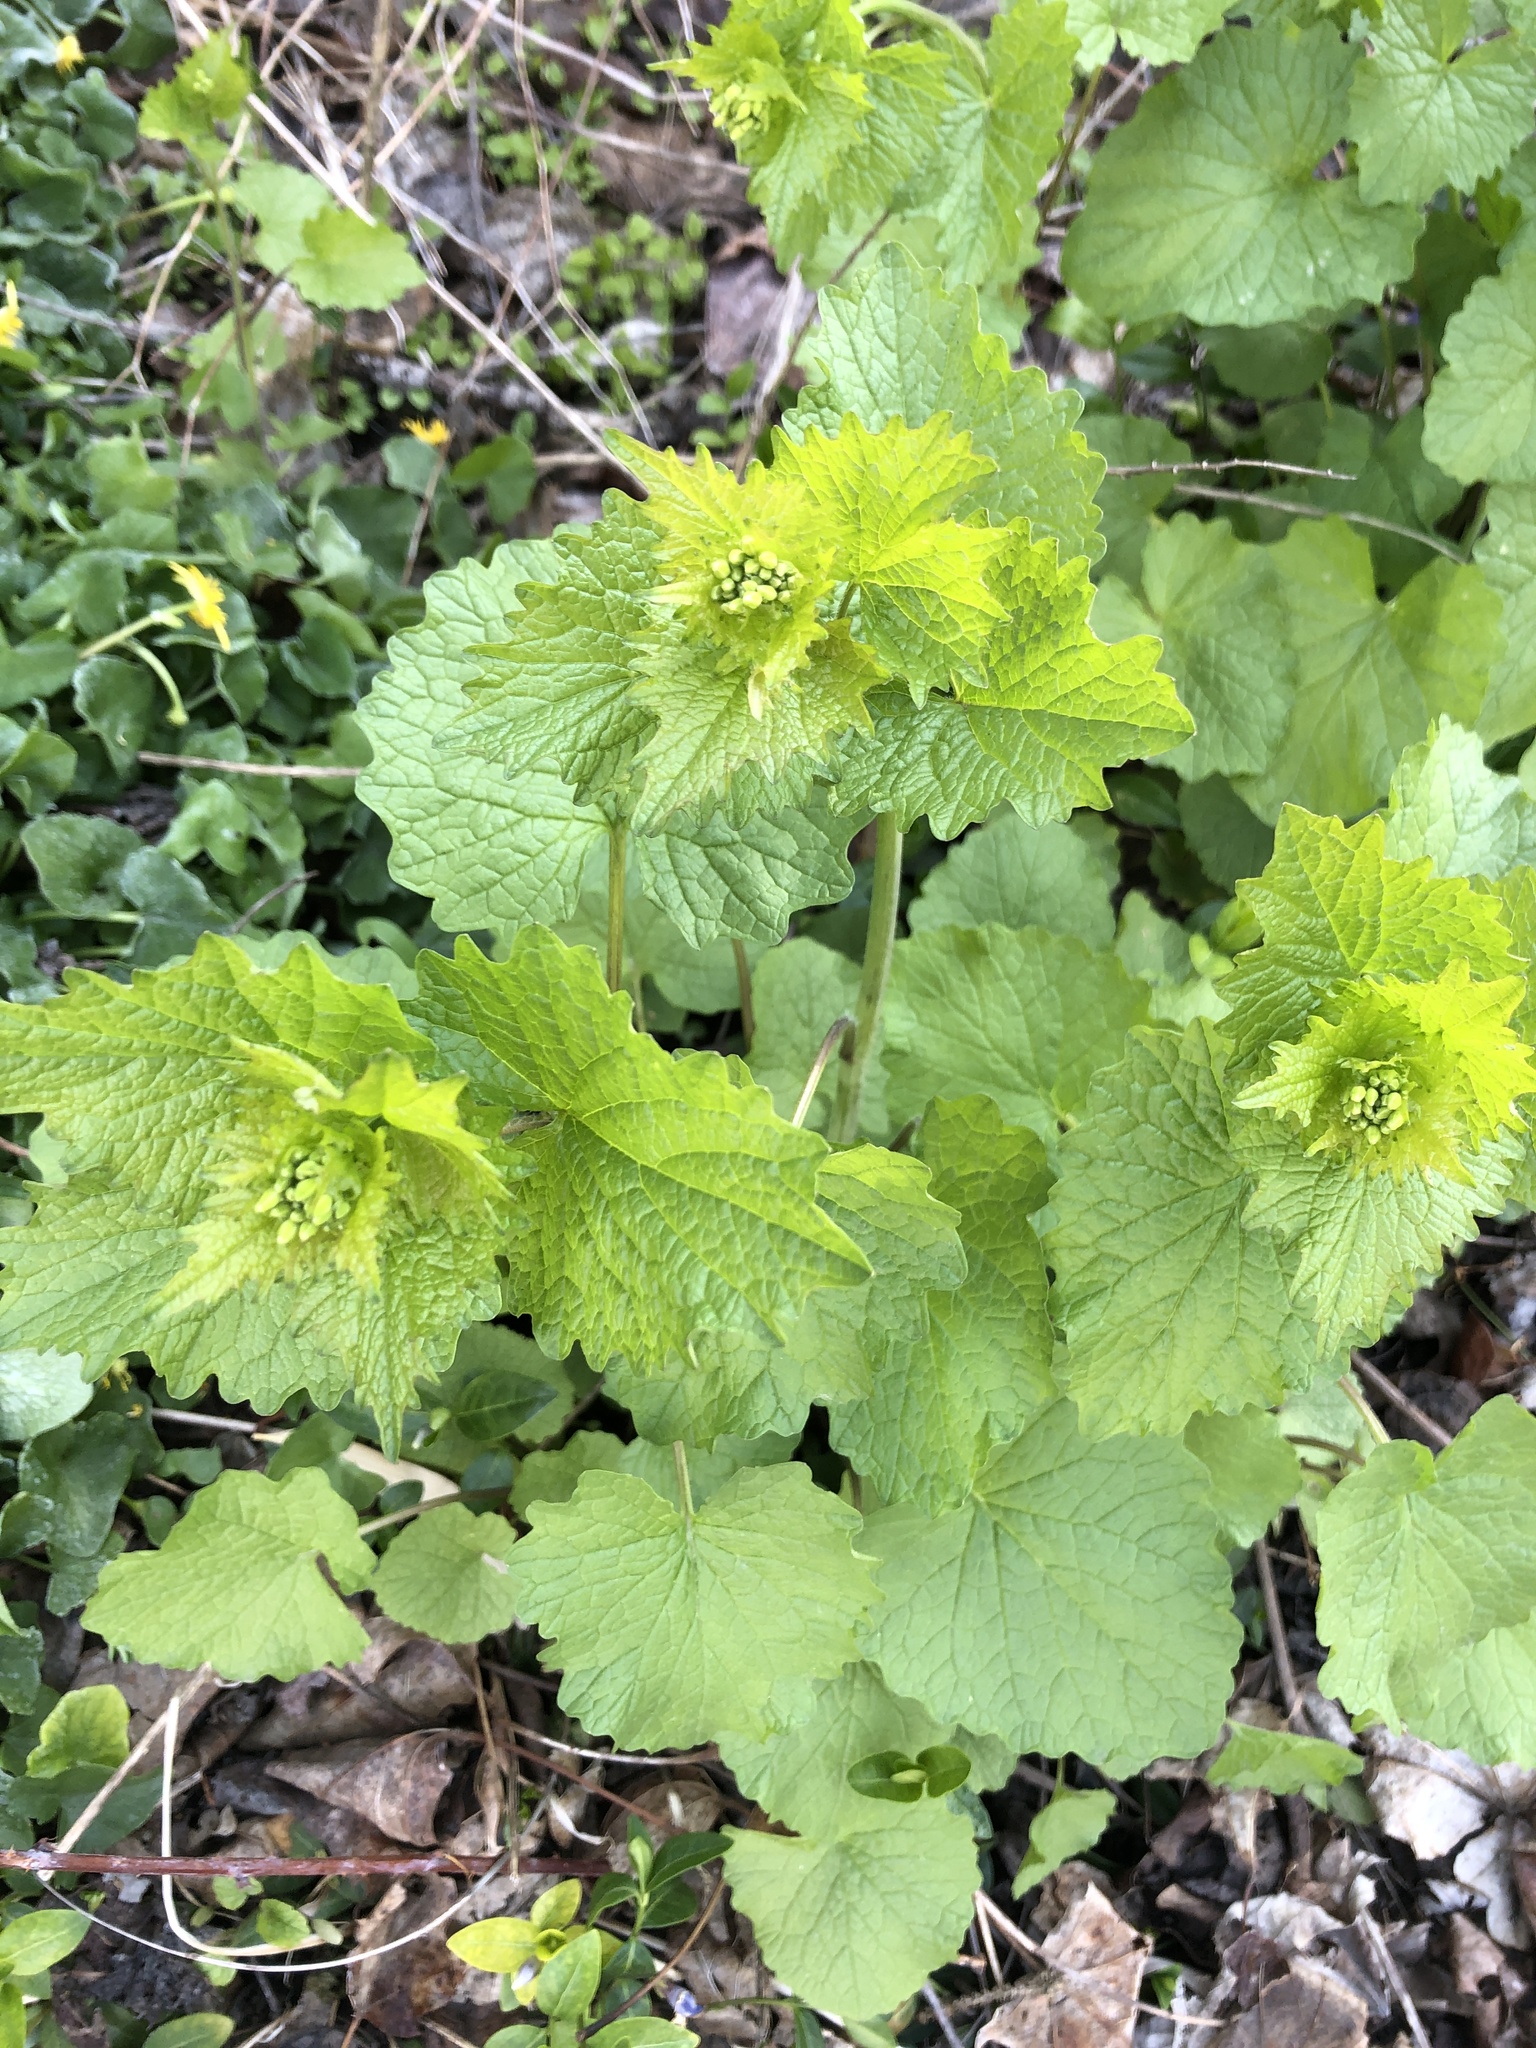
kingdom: Plantae
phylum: Tracheophyta
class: Magnoliopsida
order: Brassicales
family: Brassicaceae
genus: Alliaria
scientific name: Alliaria petiolata
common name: Garlic mustard
